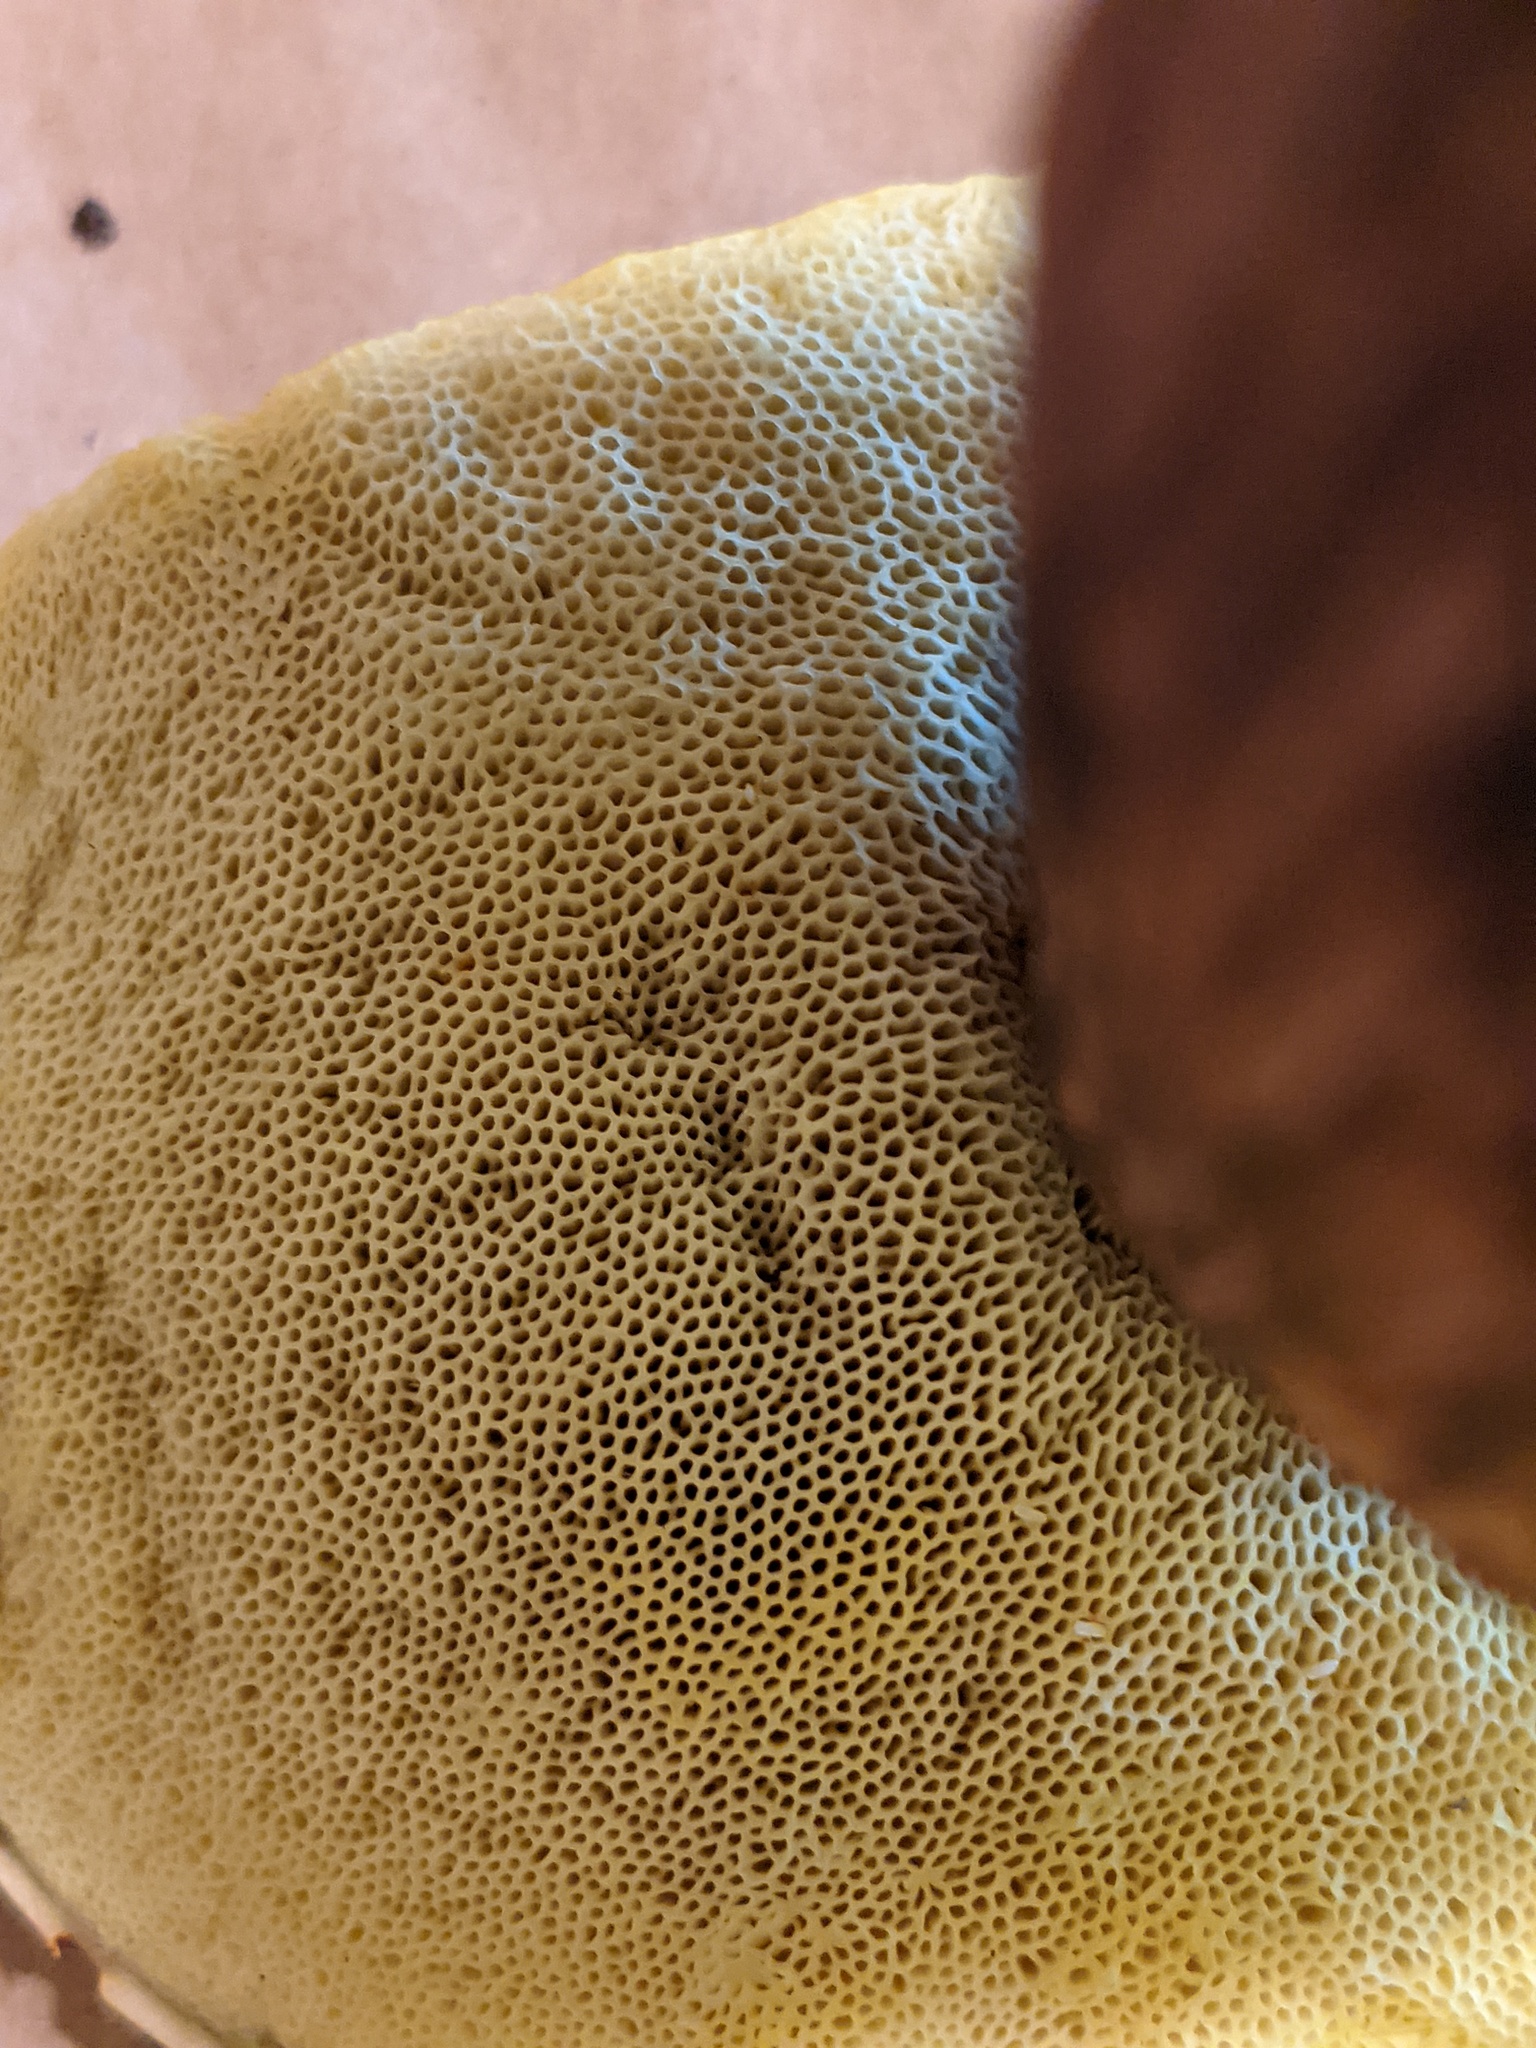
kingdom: Fungi
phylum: Basidiomycota
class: Agaricomycetes
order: Boletales
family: Boletaceae
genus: Aureoboletus
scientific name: Aureoboletus mirabilis
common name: Admirable bolete
